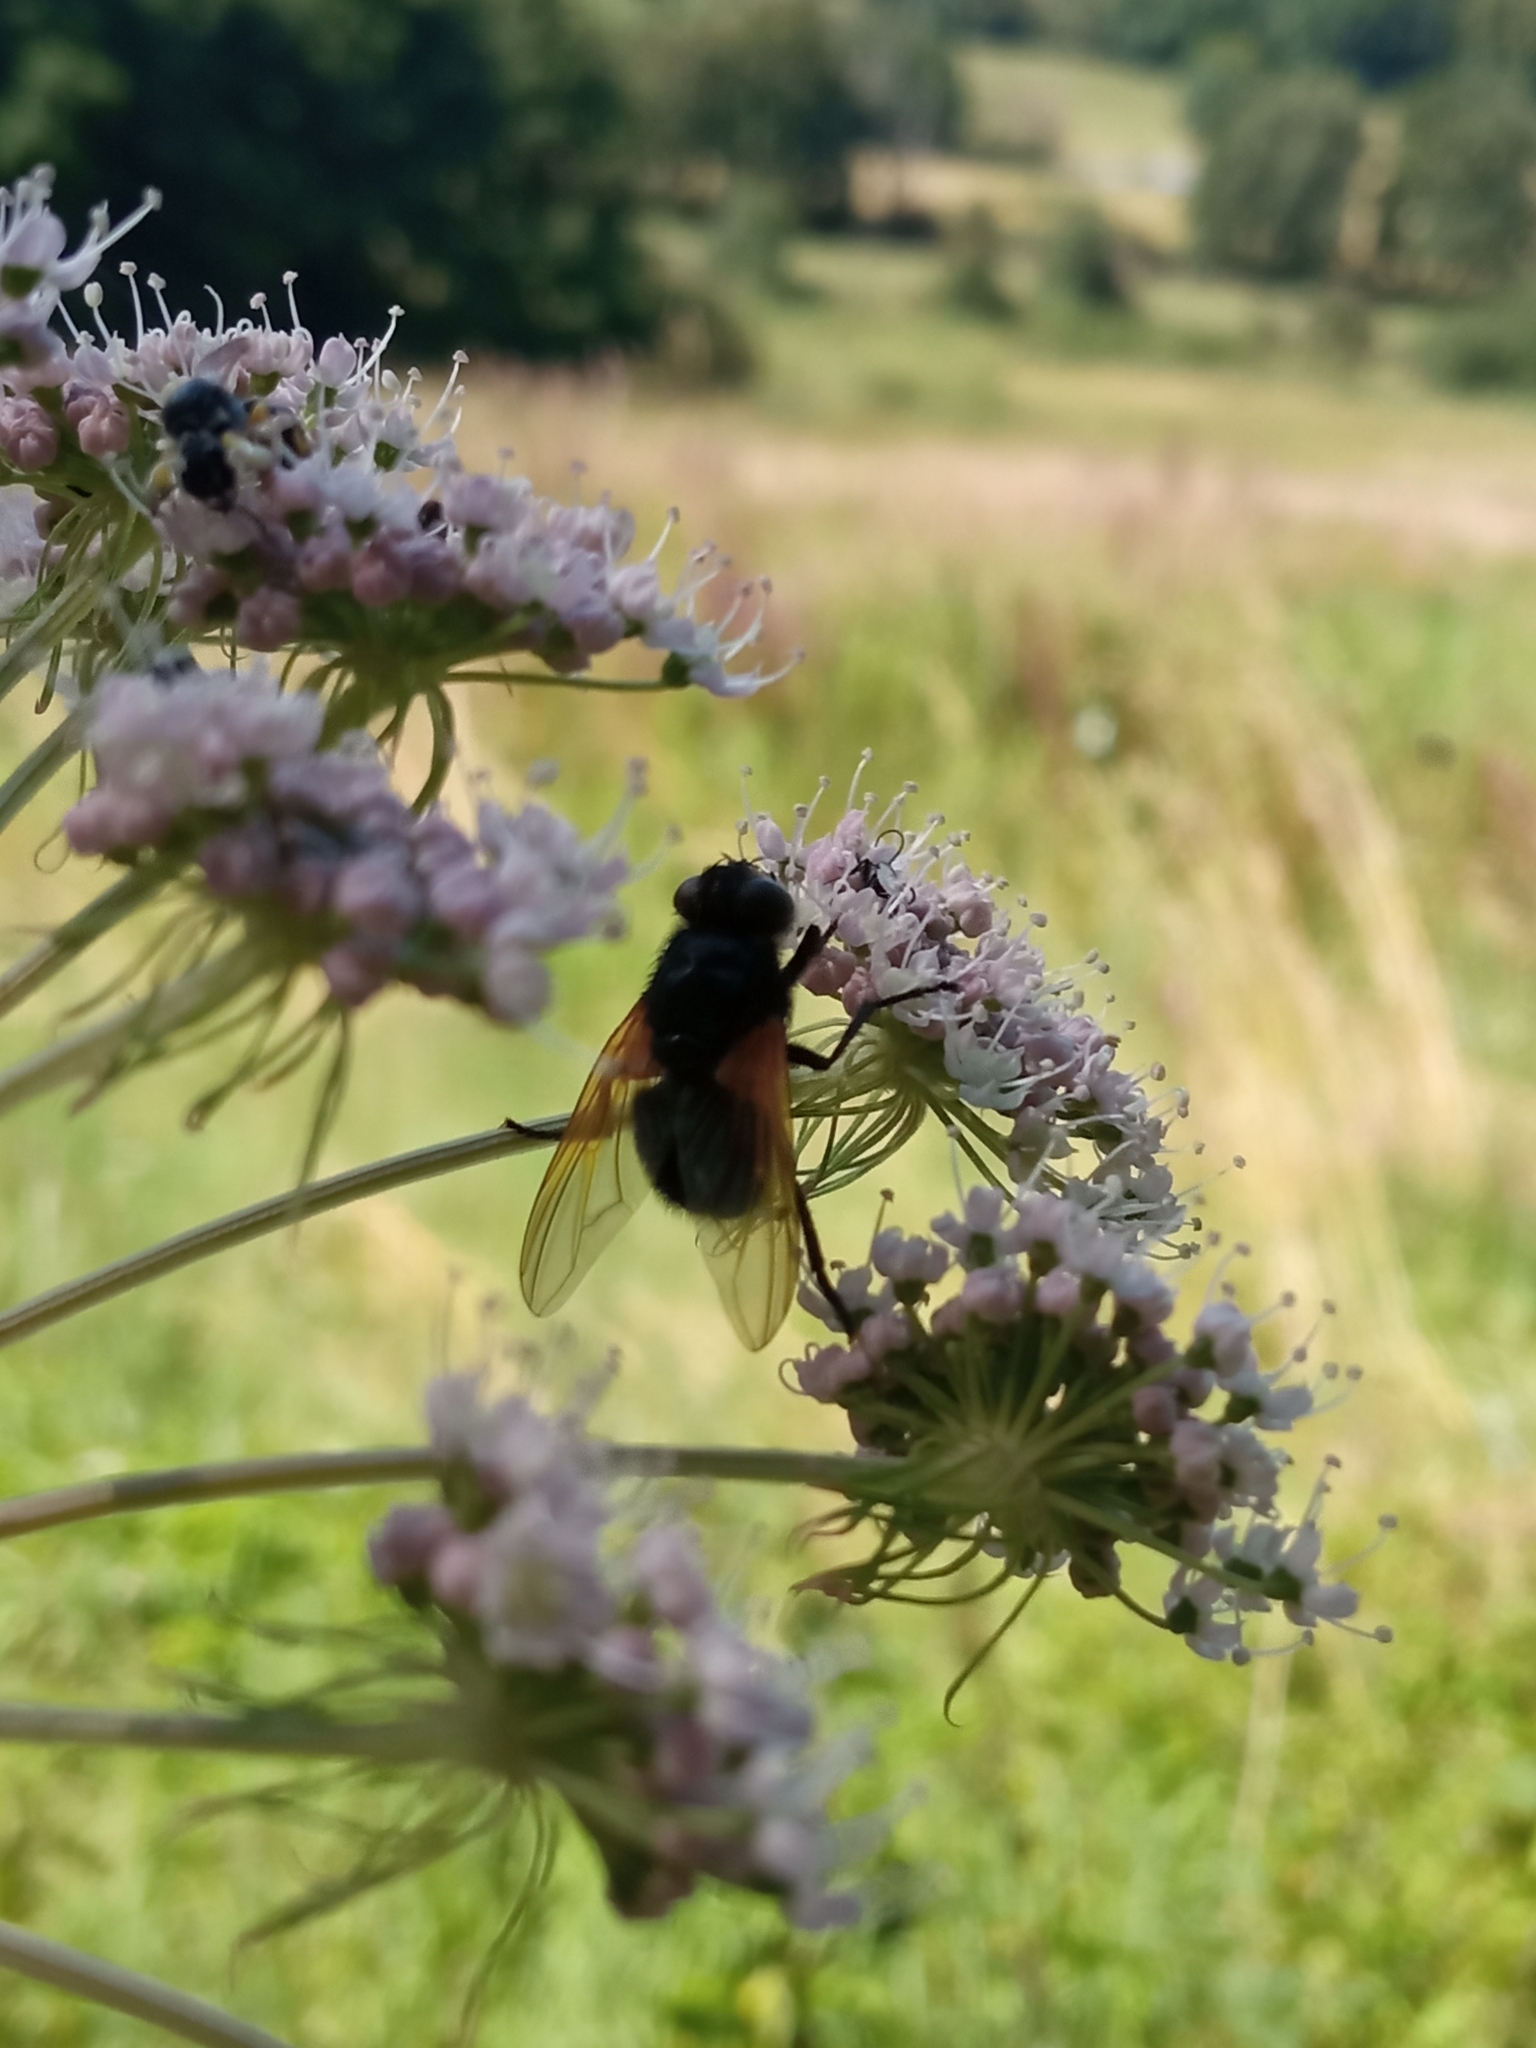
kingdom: Animalia
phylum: Arthropoda
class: Insecta
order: Diptera
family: Muscidae
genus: Mesembrina
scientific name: Mesembrina meridiana
